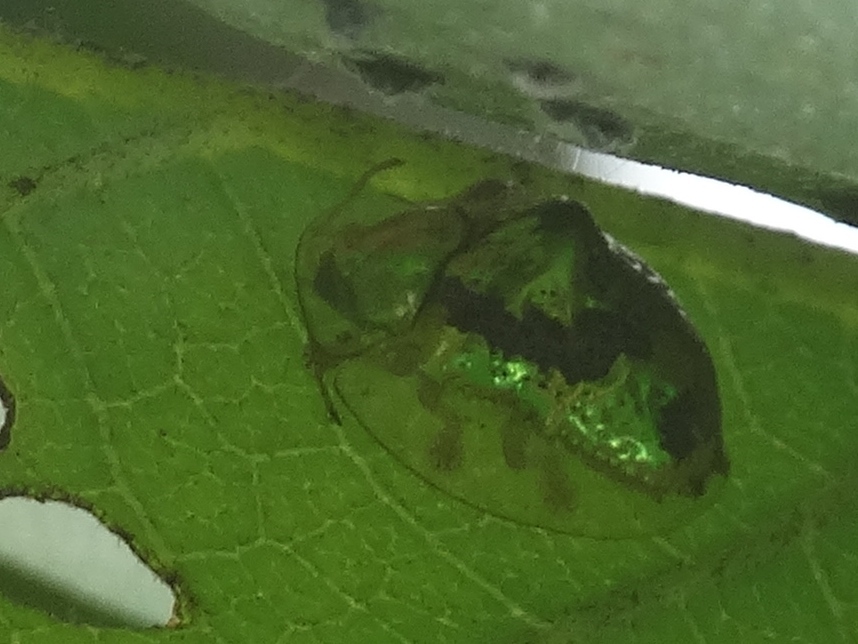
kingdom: Animalia
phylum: Arthropoda
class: Insecta
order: Coleoptera
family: Chrysomelidae
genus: Coptocycla
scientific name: Coptocycla leprosa
